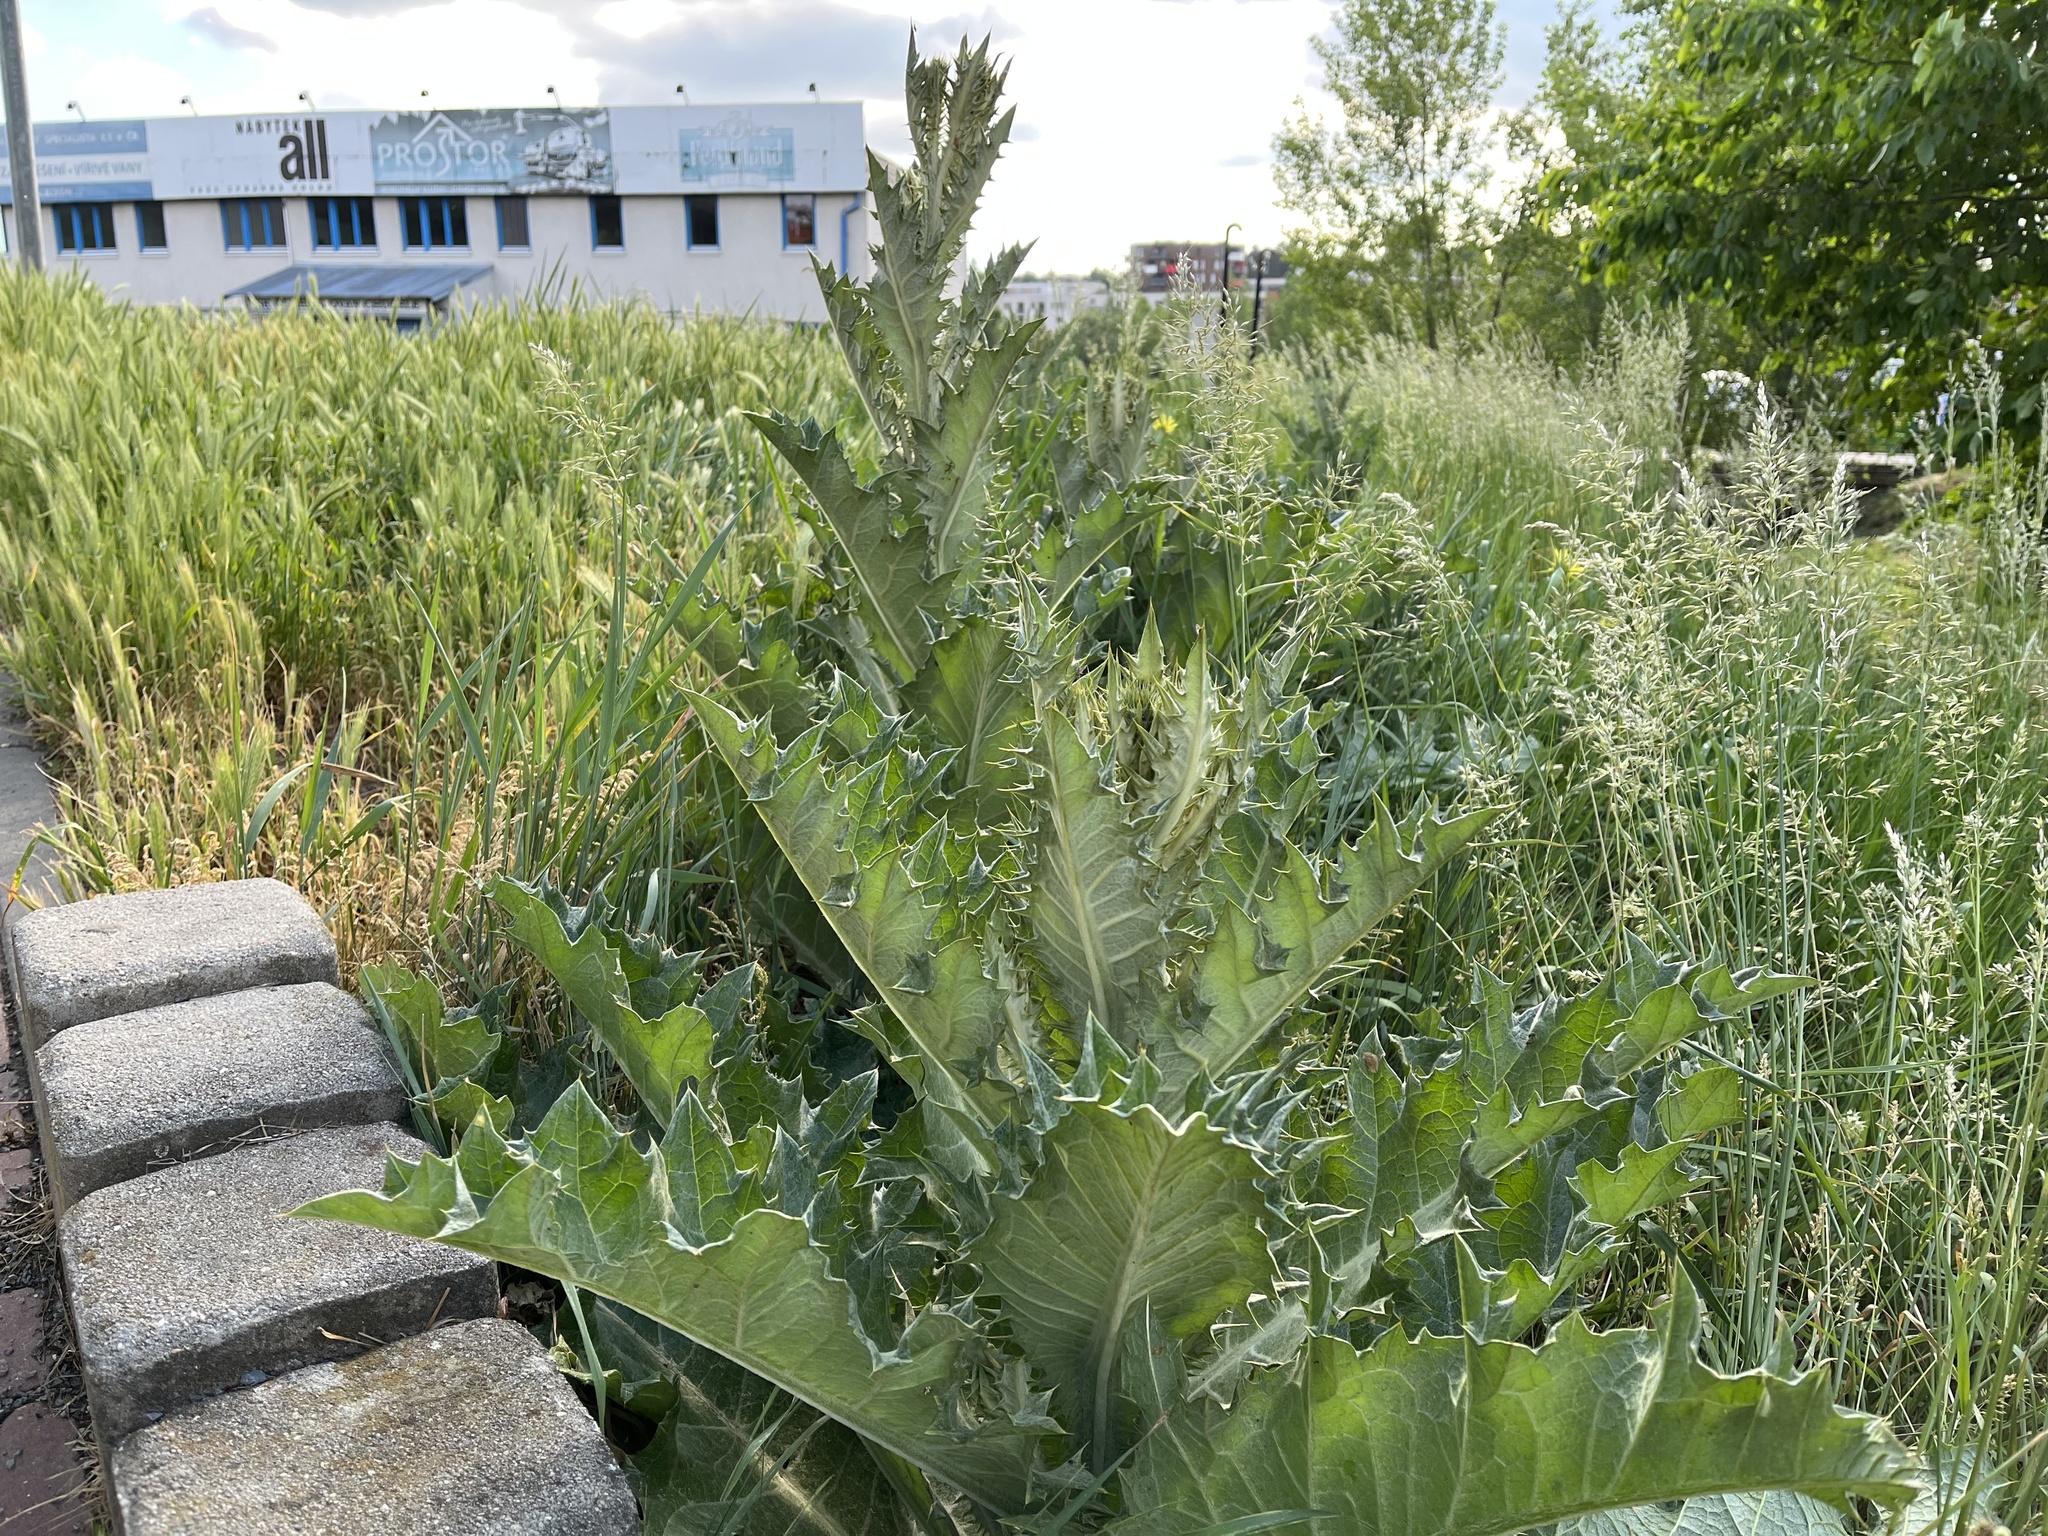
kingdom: Plantae
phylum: Tracheophyta
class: Magnoliopsida
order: Asterales
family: Asteraceae
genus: Onopordum
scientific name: Onopordum acanthium
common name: Scotch thistle
